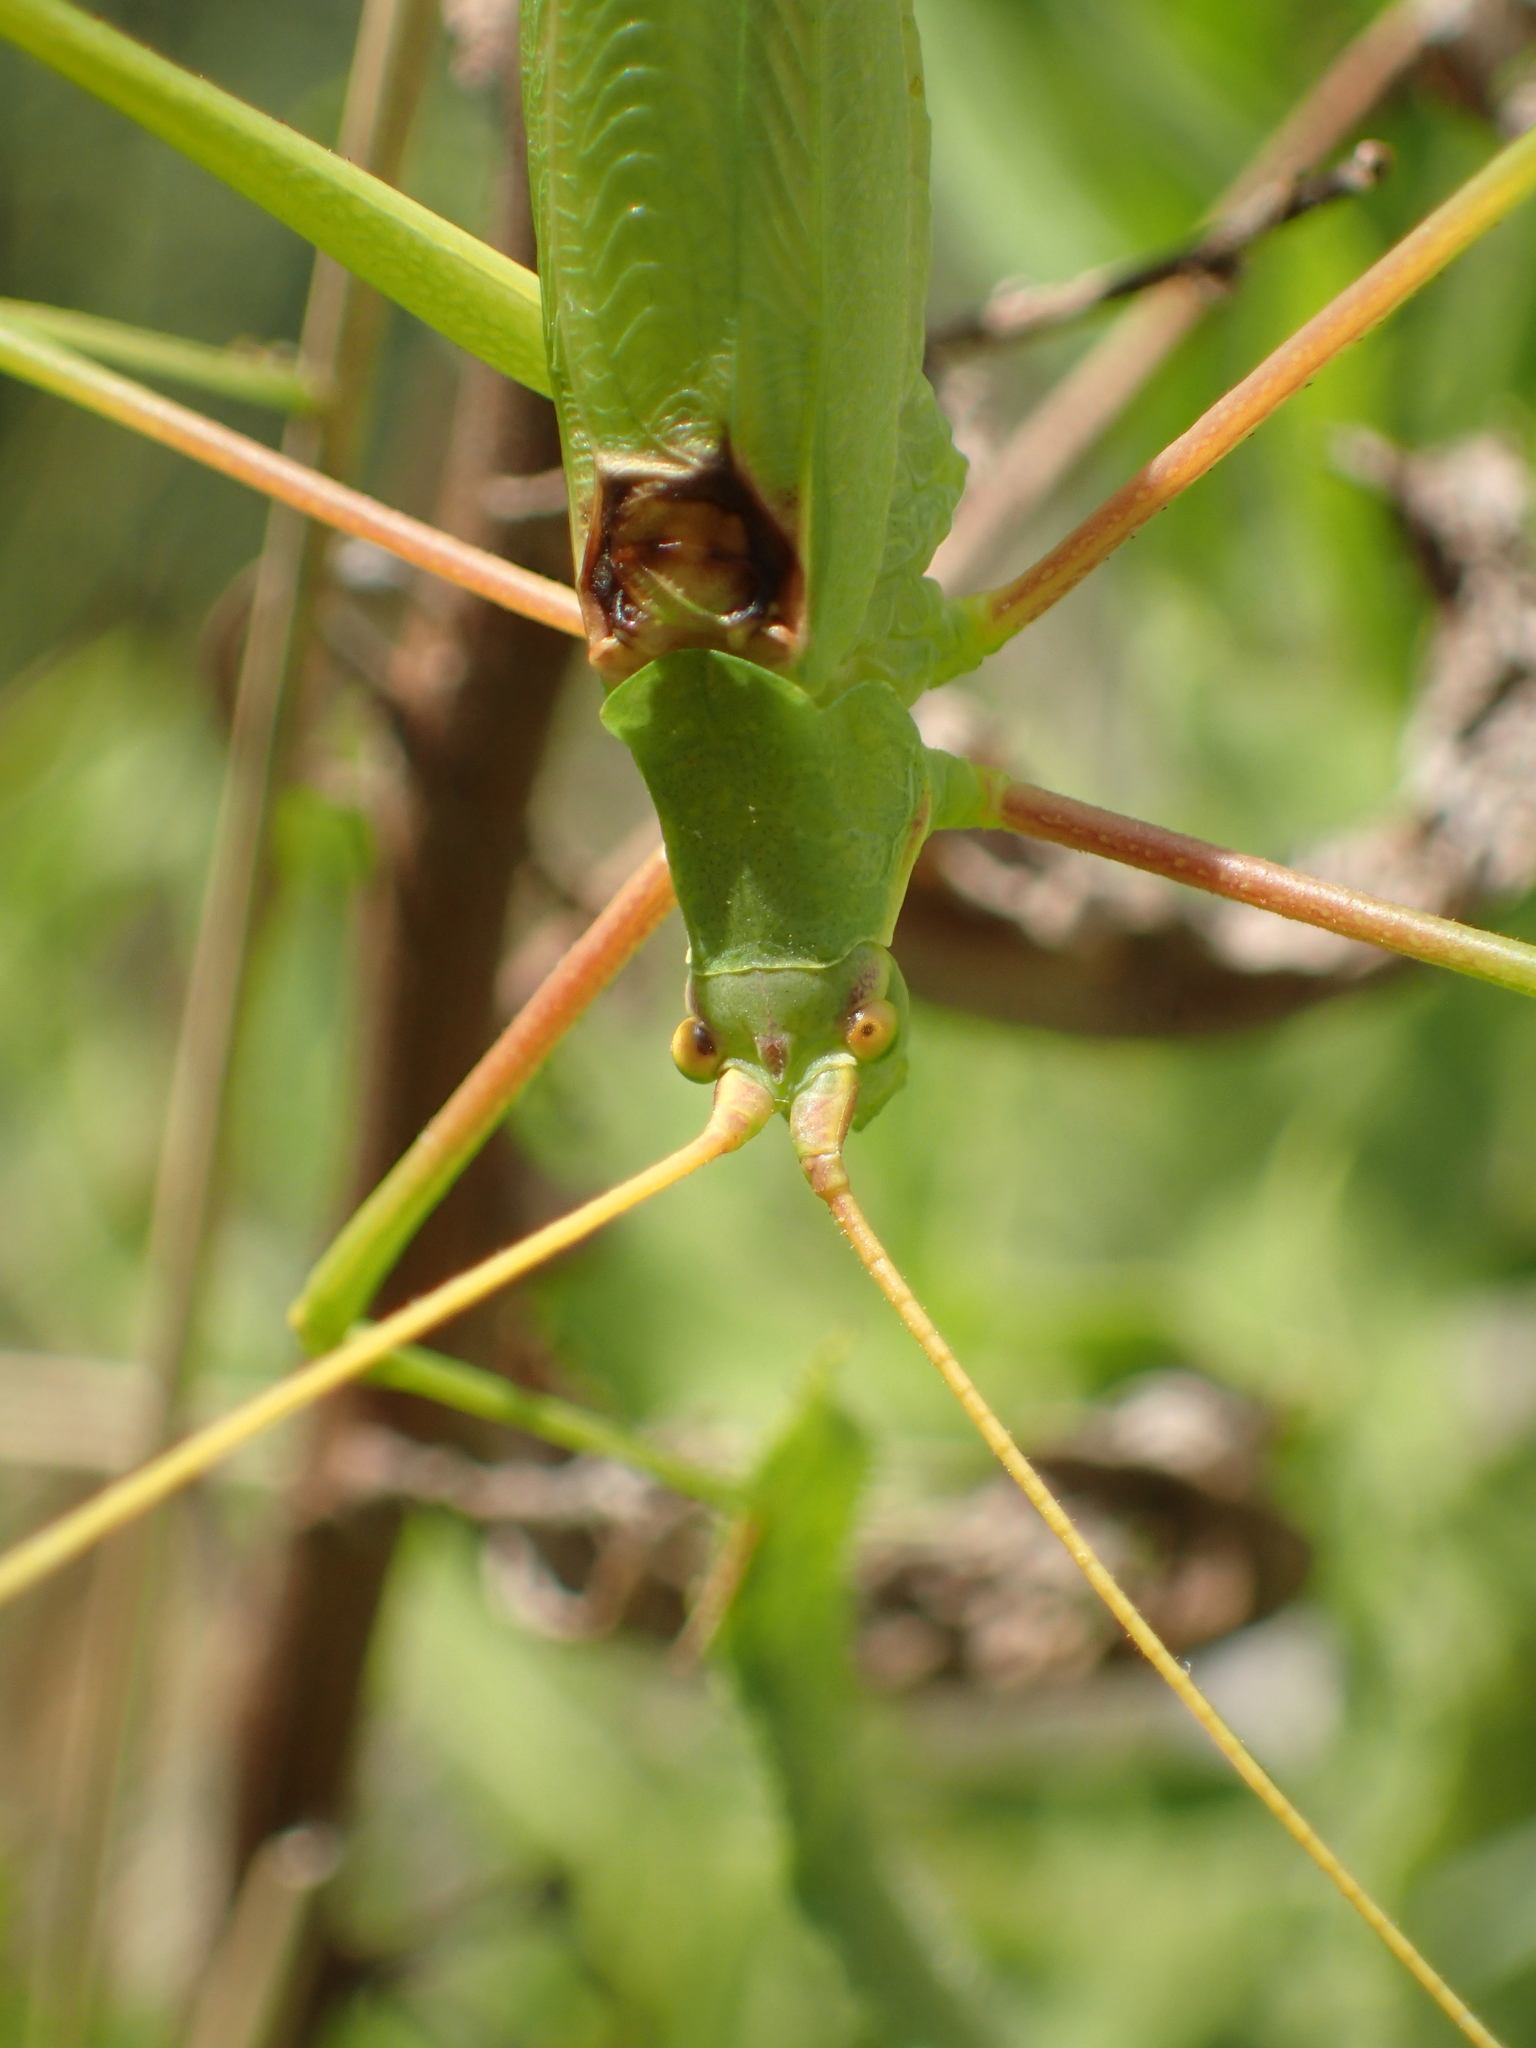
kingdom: Animalia
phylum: Arthropoda
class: Insecta
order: Orthoptera
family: Tettigoniidae
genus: Acrometopa
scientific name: Acrometopa macropoda
